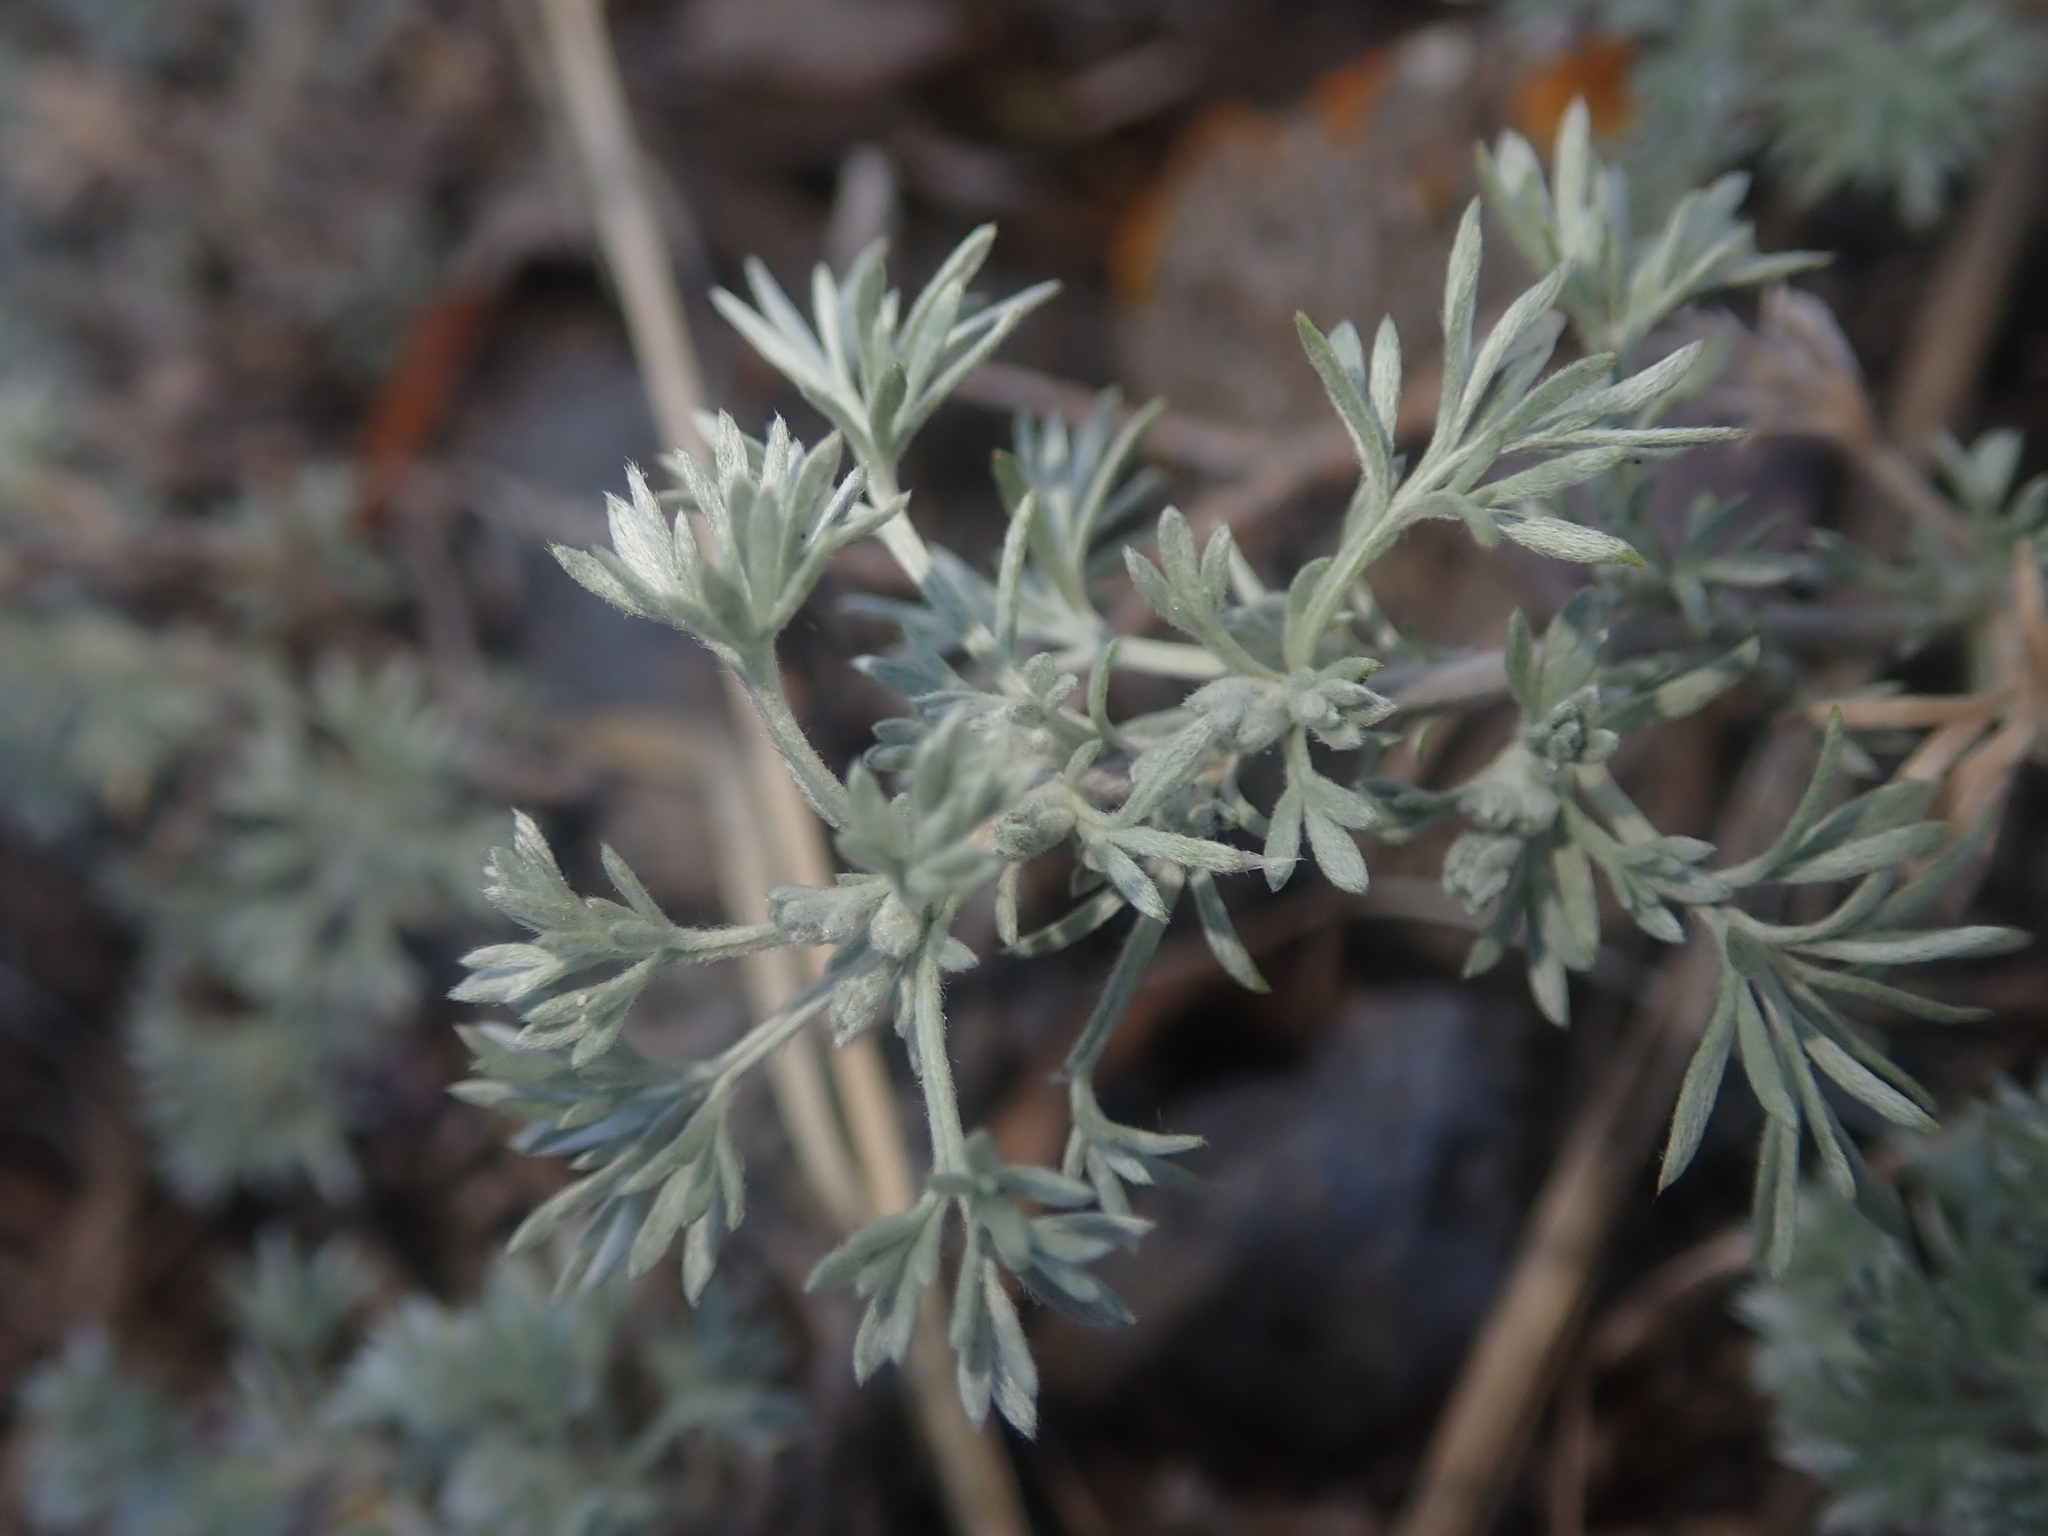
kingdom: Plantae
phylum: Tracheophyta
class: Magnoliopsida
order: Asterales
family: Asteraceae
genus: Artemisia
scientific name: Artemisia frigida
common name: Prairie sagewort
